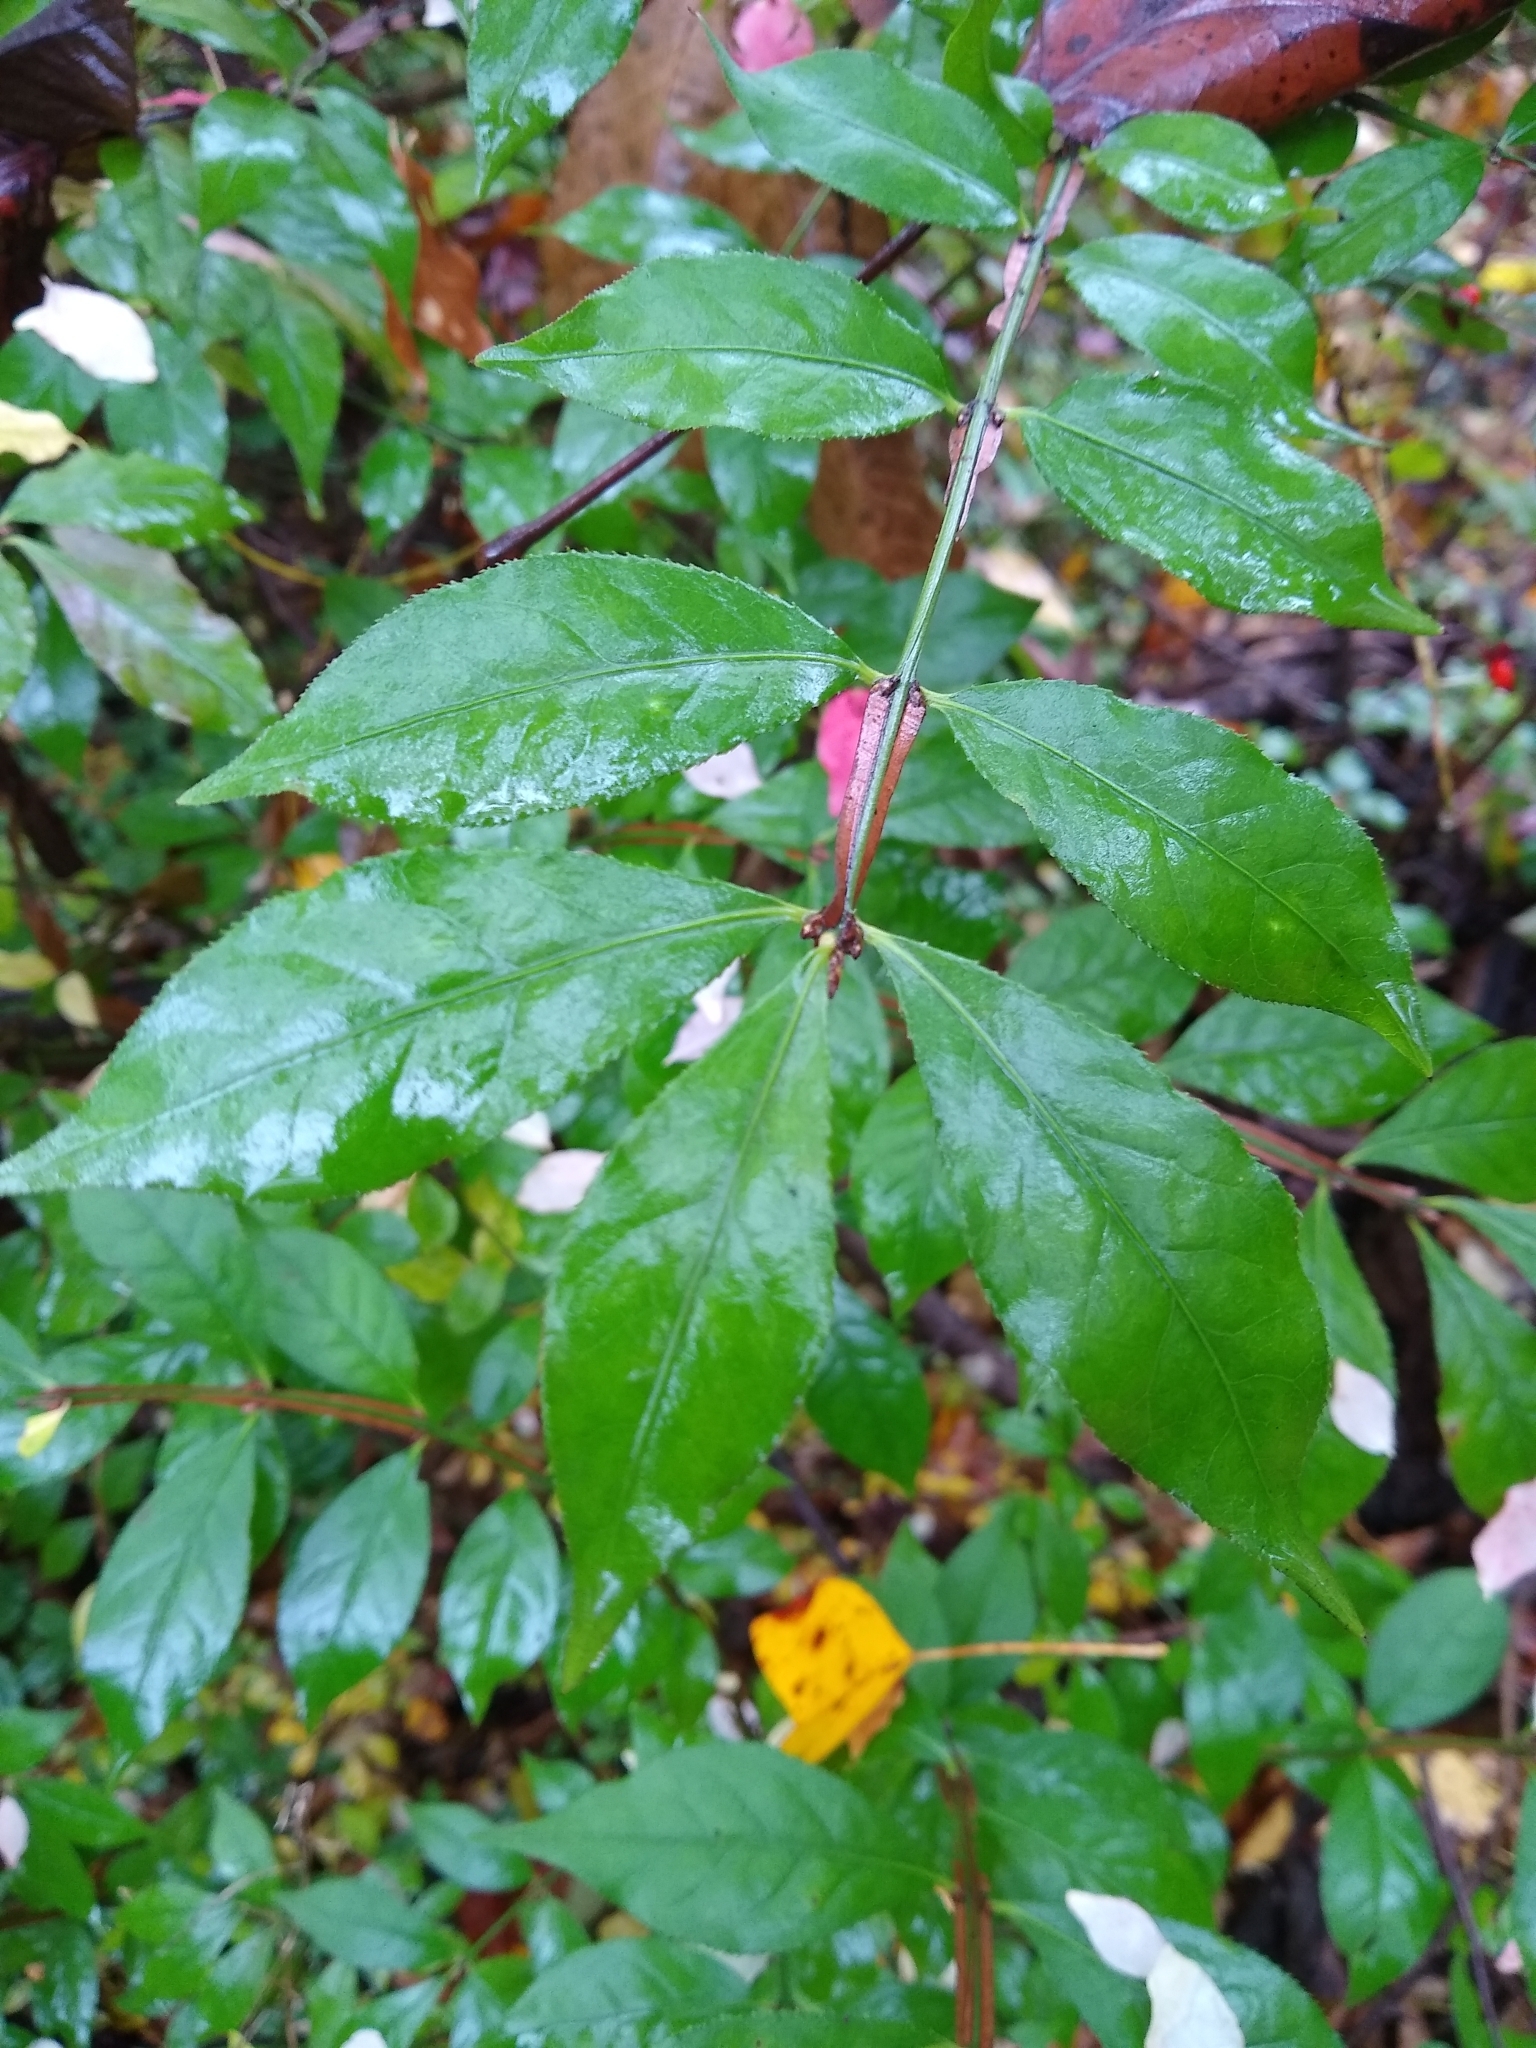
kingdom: Plantae
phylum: Tracheophyta
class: Magnoliopsida
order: Celastrales
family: Celastraceae
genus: Euonymus
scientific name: Euonymus alatus
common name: Winged euonymus
